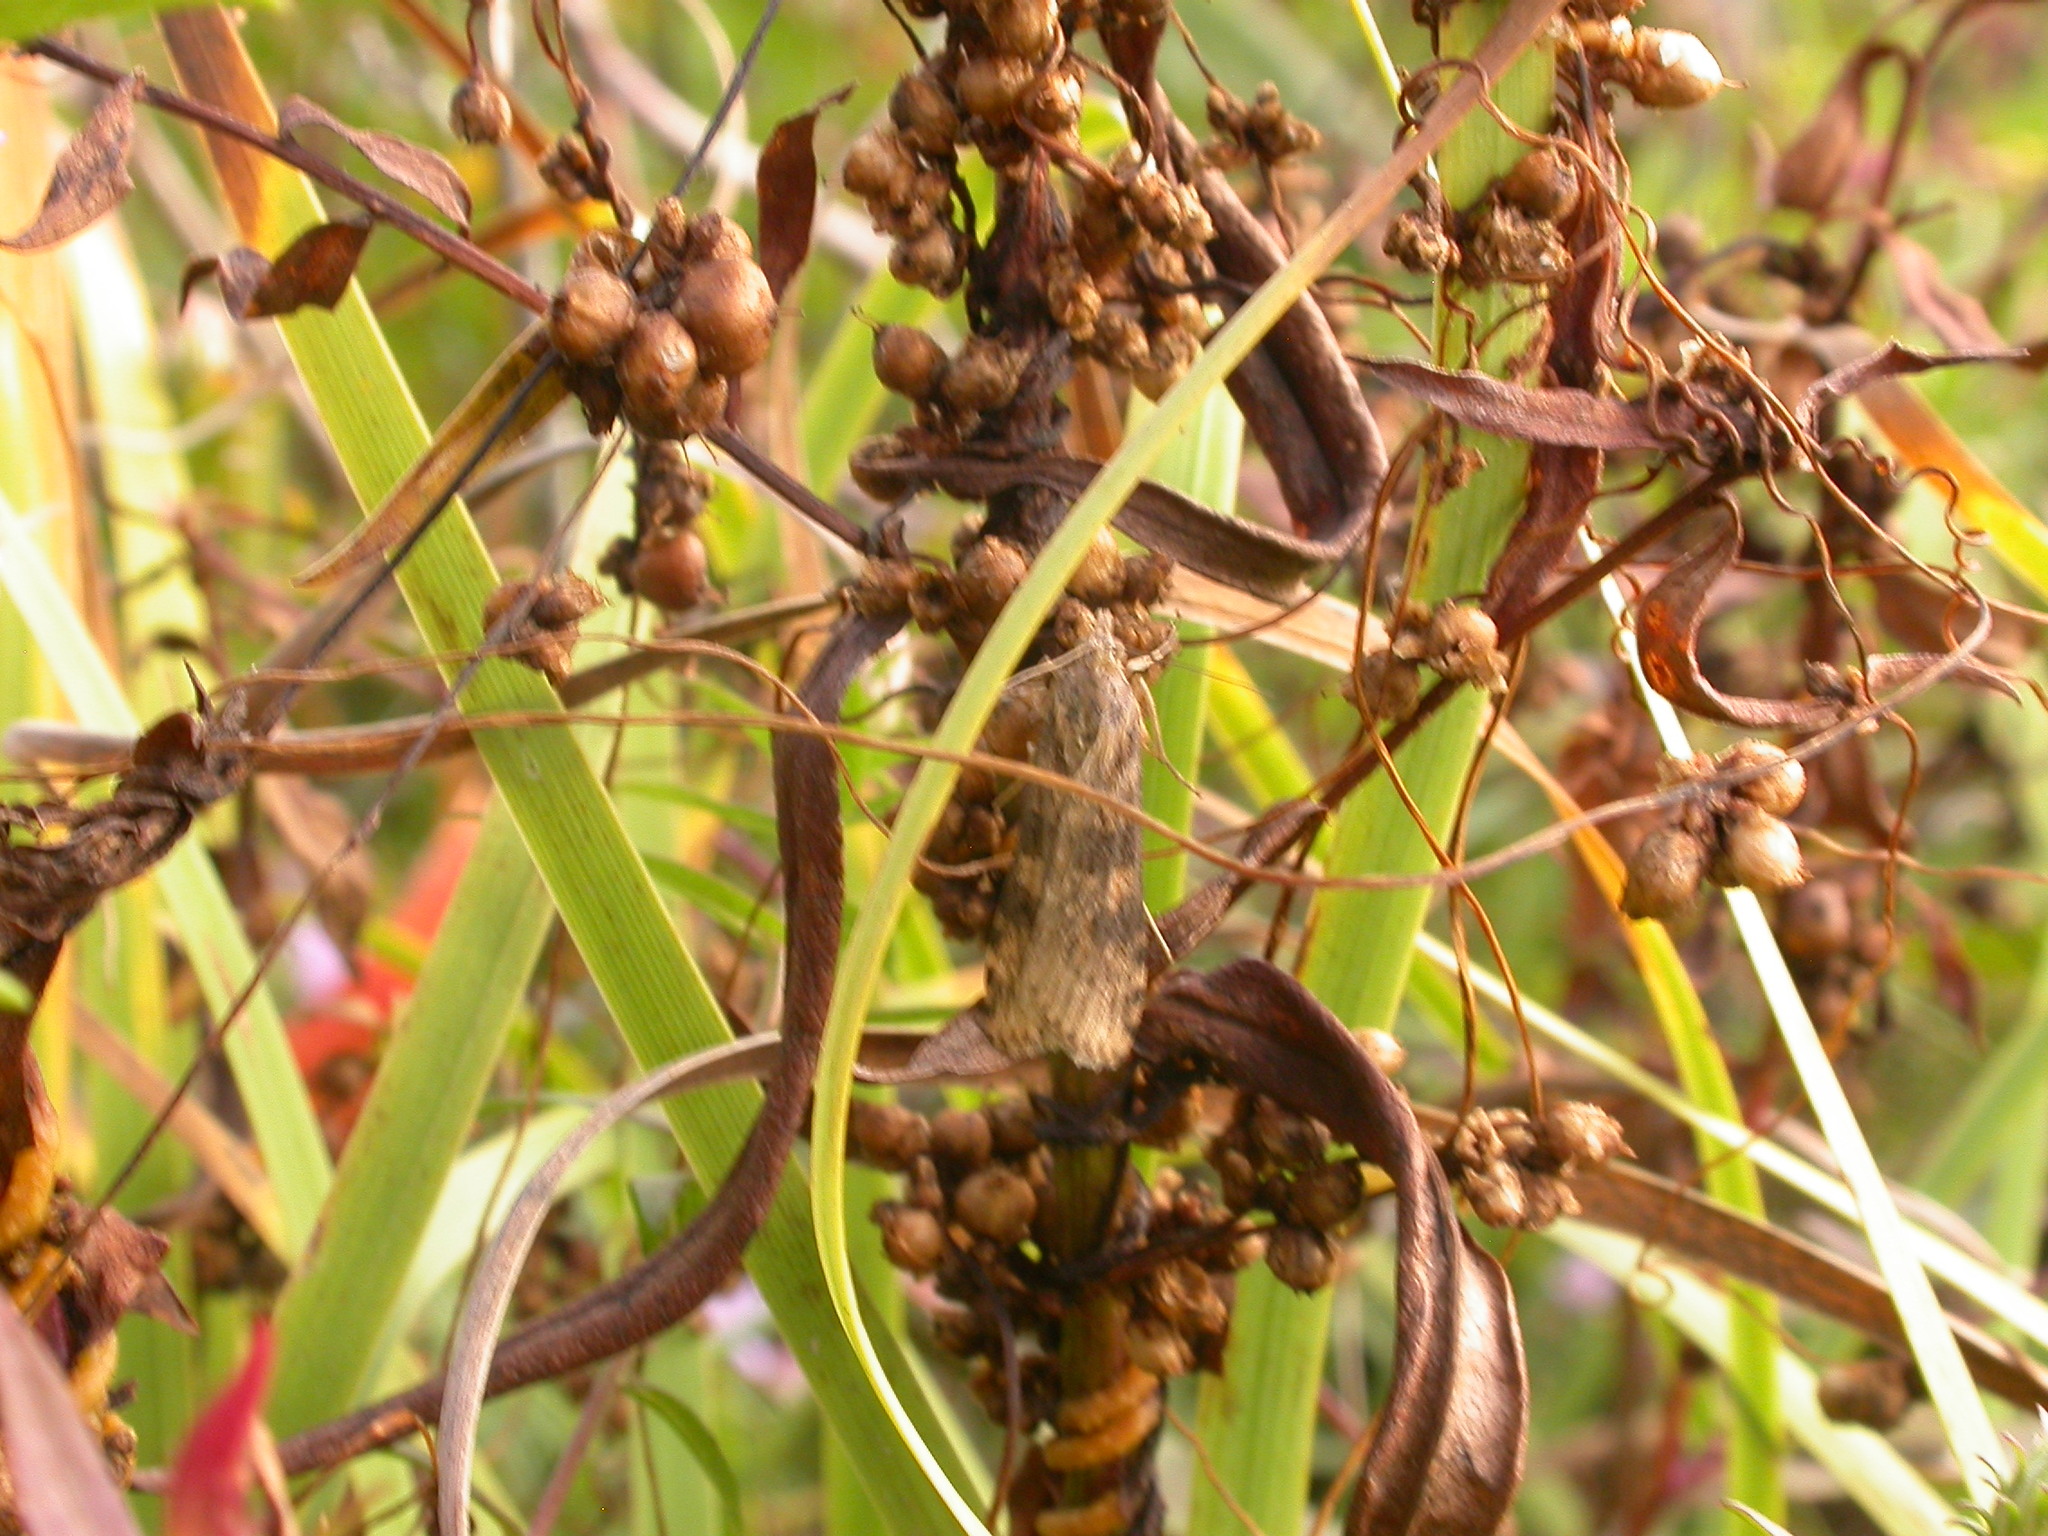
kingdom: Animalia
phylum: Arthropoda
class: Insecta
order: Lepidoptera
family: Crambidae
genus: Nomophila
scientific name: Nomophila nearctica
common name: American rush veneer
